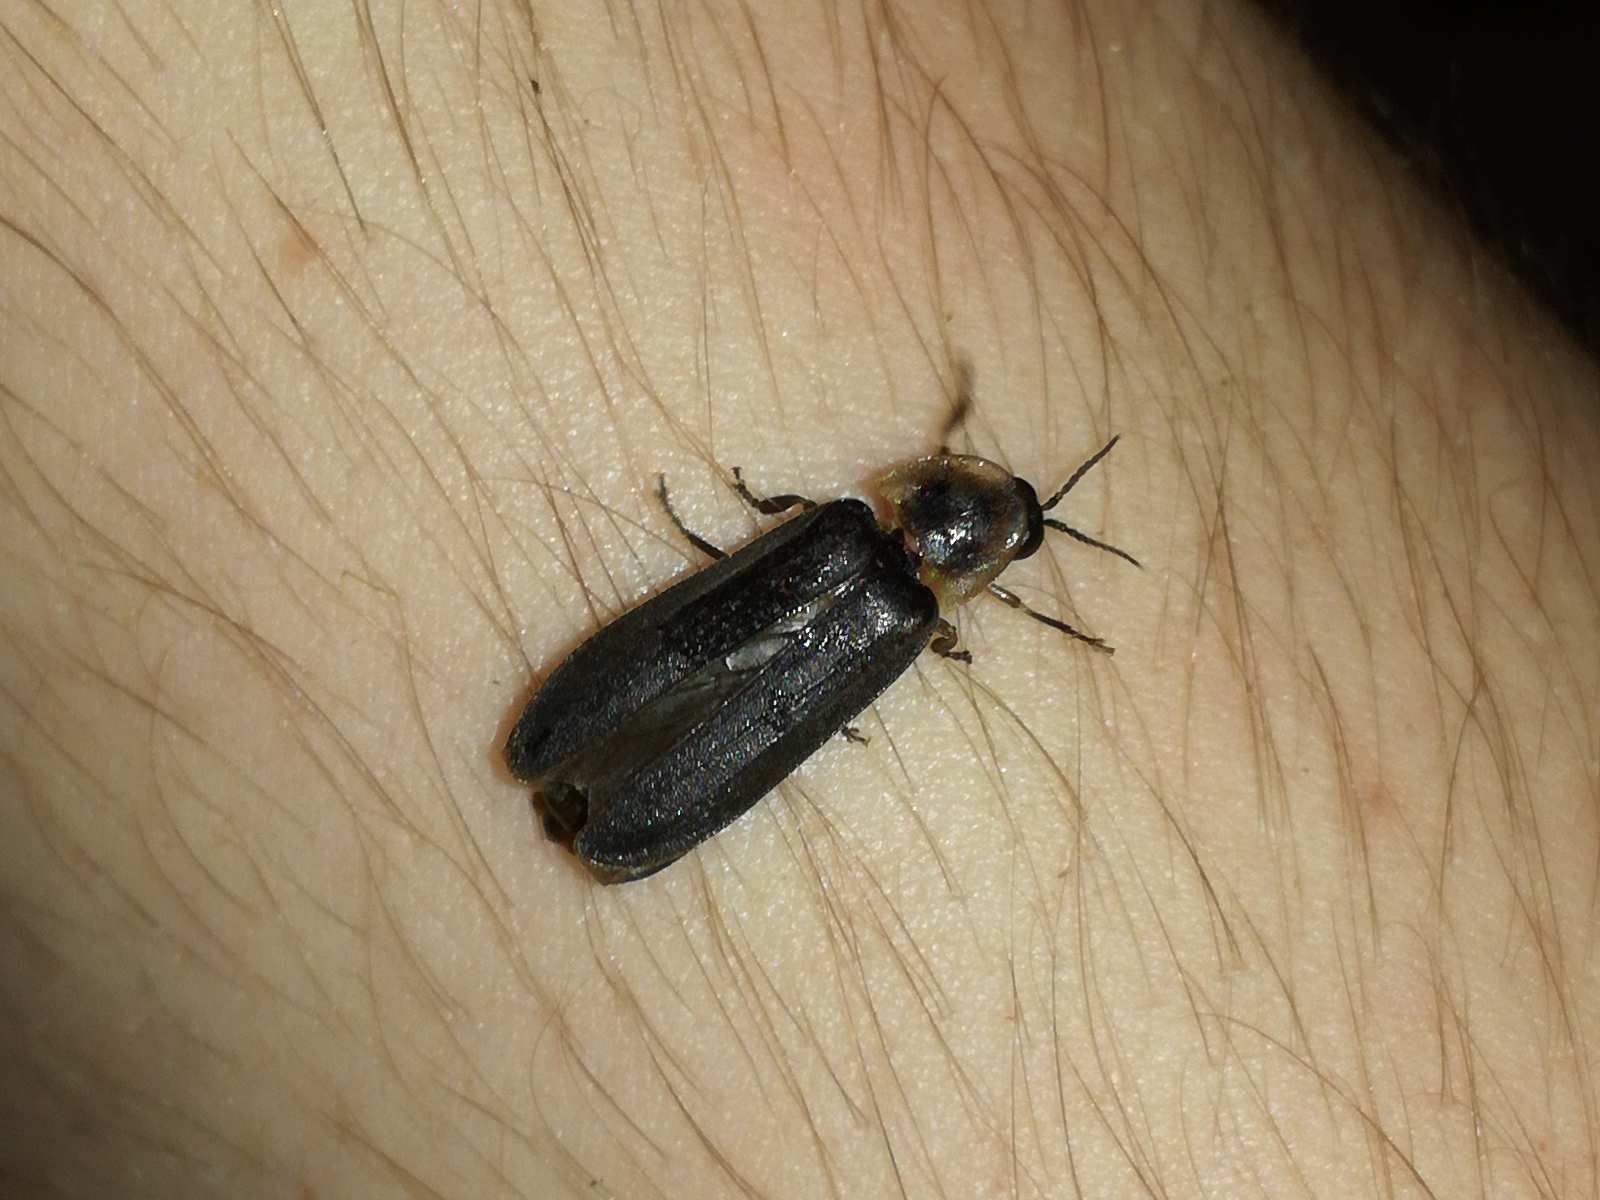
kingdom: Animalia
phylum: Arthropoda
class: Insecta
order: Coleoptera
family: Lampyridae
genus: Lampyris
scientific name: Lampyris noctiluca
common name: Glow-worm
